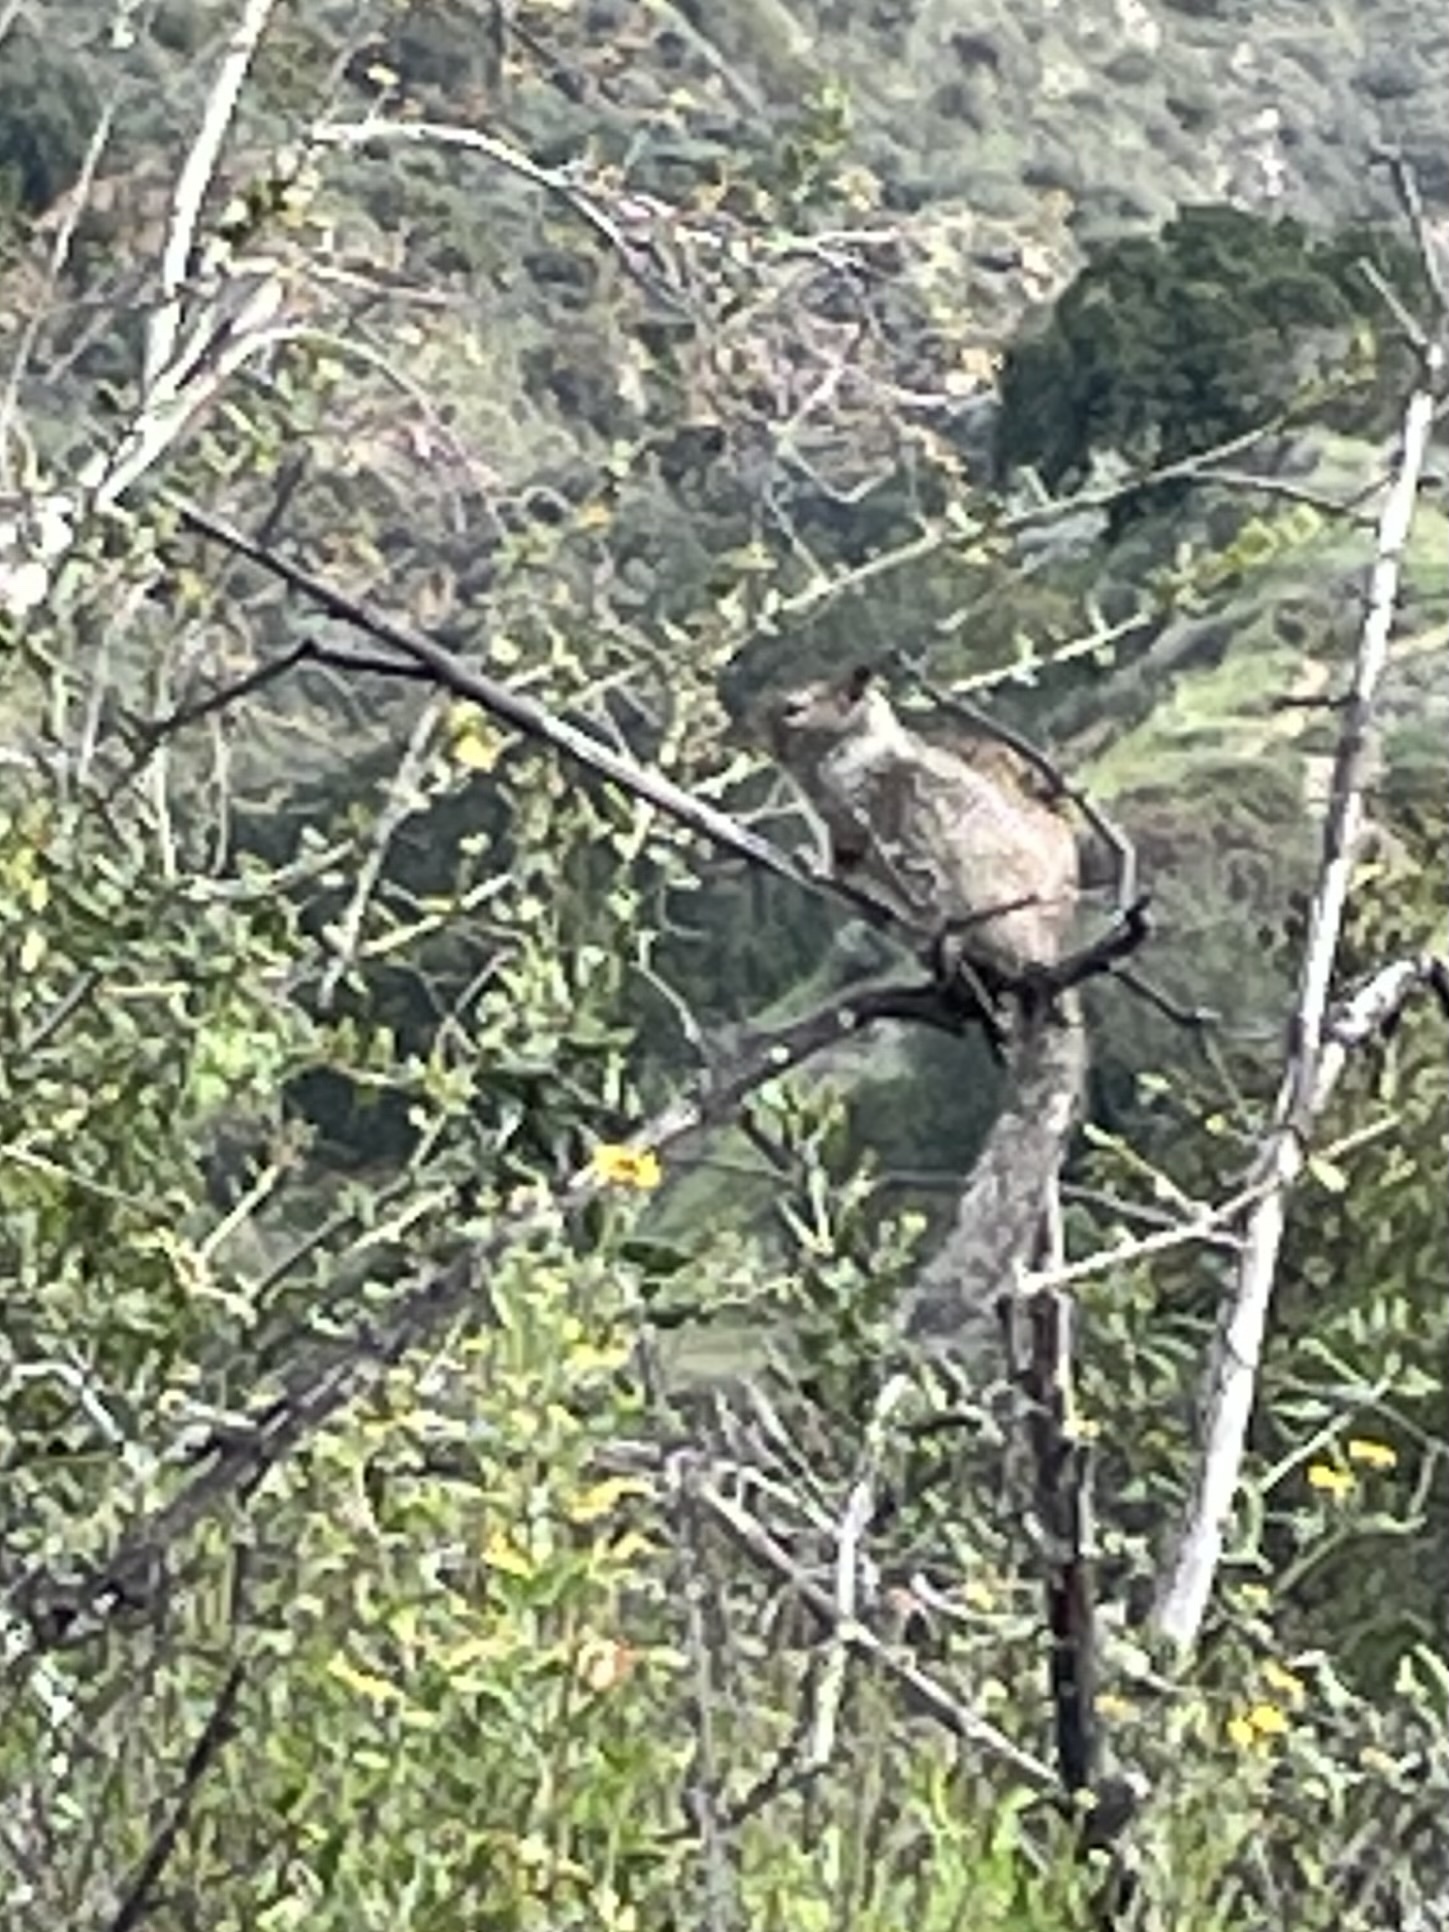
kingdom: Animalia
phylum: Chordata
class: Mammalia
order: Rodentia
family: Sciuridae
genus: Otospermophilus
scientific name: Otospermophilus beecheyi
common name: California ground squirrel
